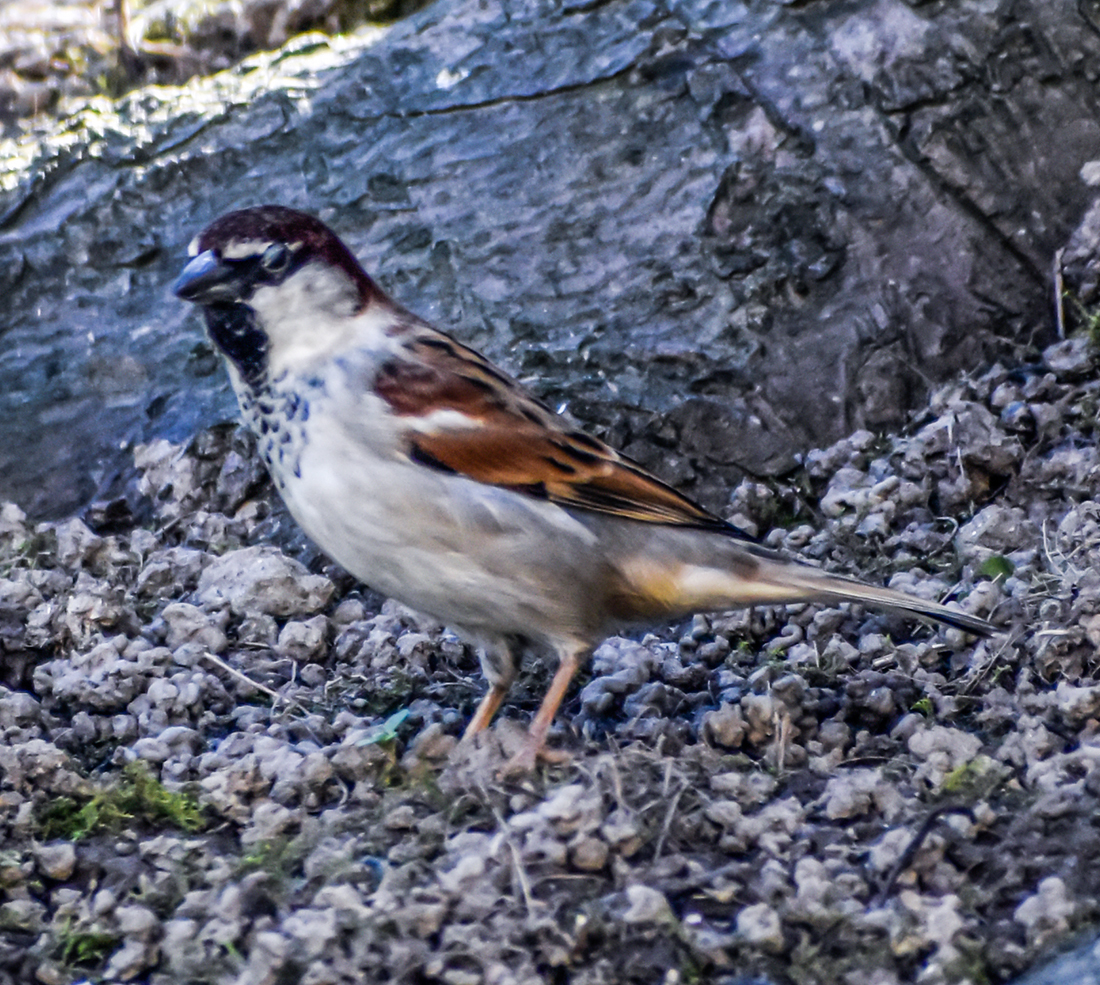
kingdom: Animalia
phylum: Chordata
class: Aves
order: Passeriformes
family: Passeridae
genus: Passer
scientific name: Passer italiae
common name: Italian sparrow
